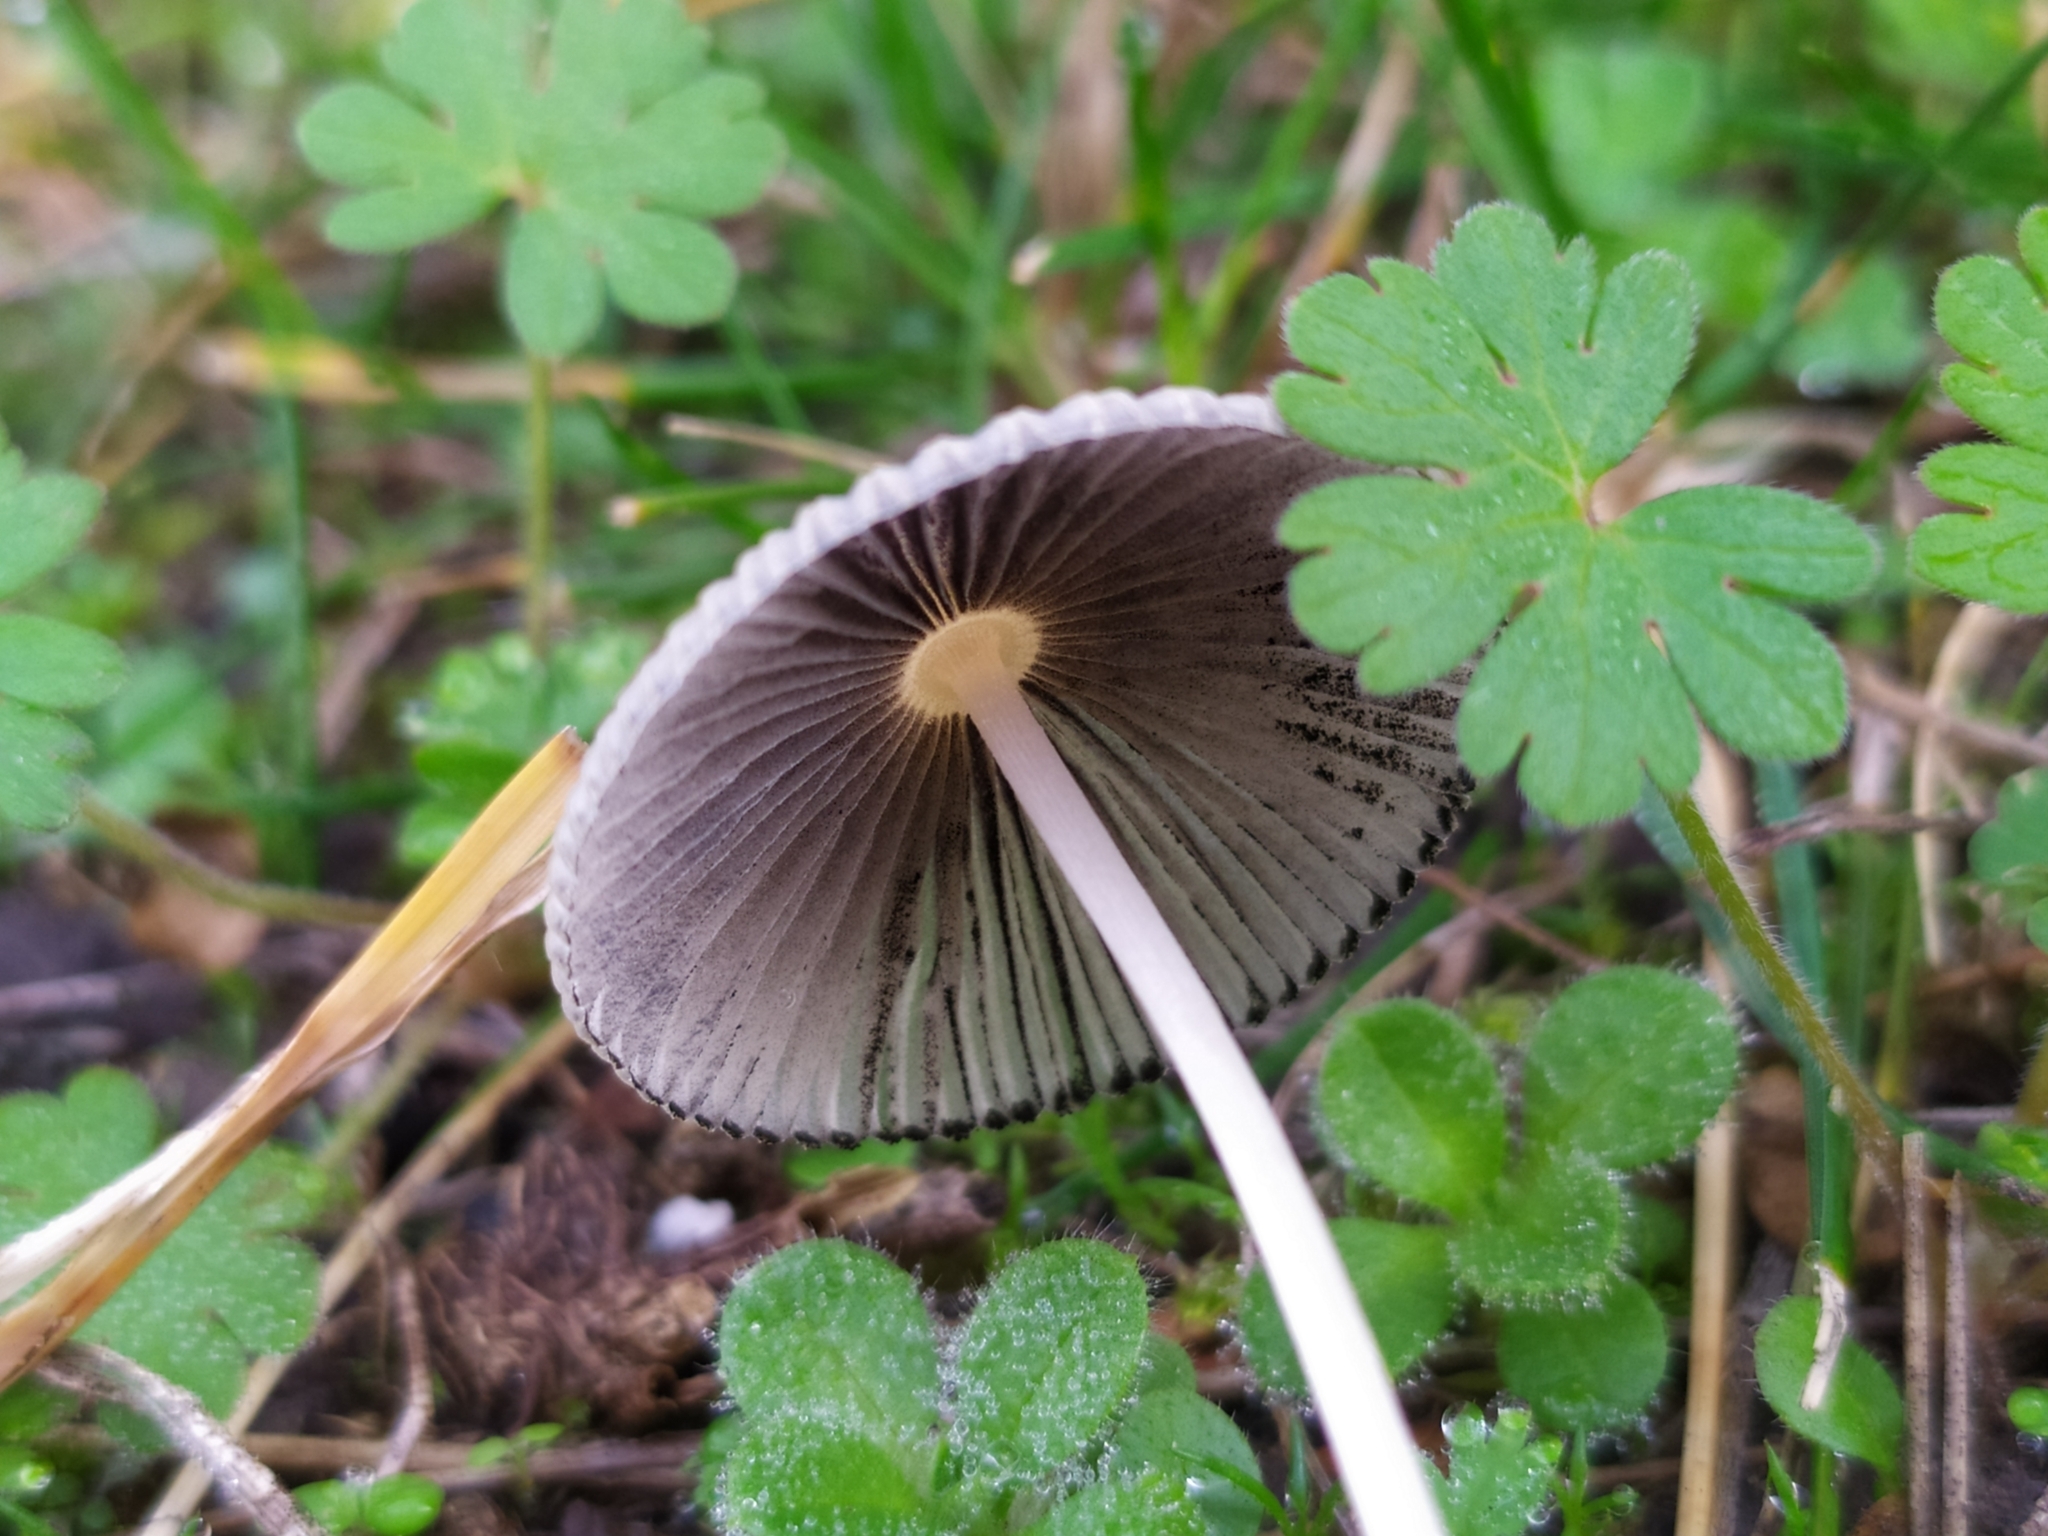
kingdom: Fungi
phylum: Basidiomycota
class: Agaricomycetes
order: Agaricales
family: Psathyrellaceae
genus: Parasola
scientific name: Parasola plicatilis
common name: Pleated inkcap
